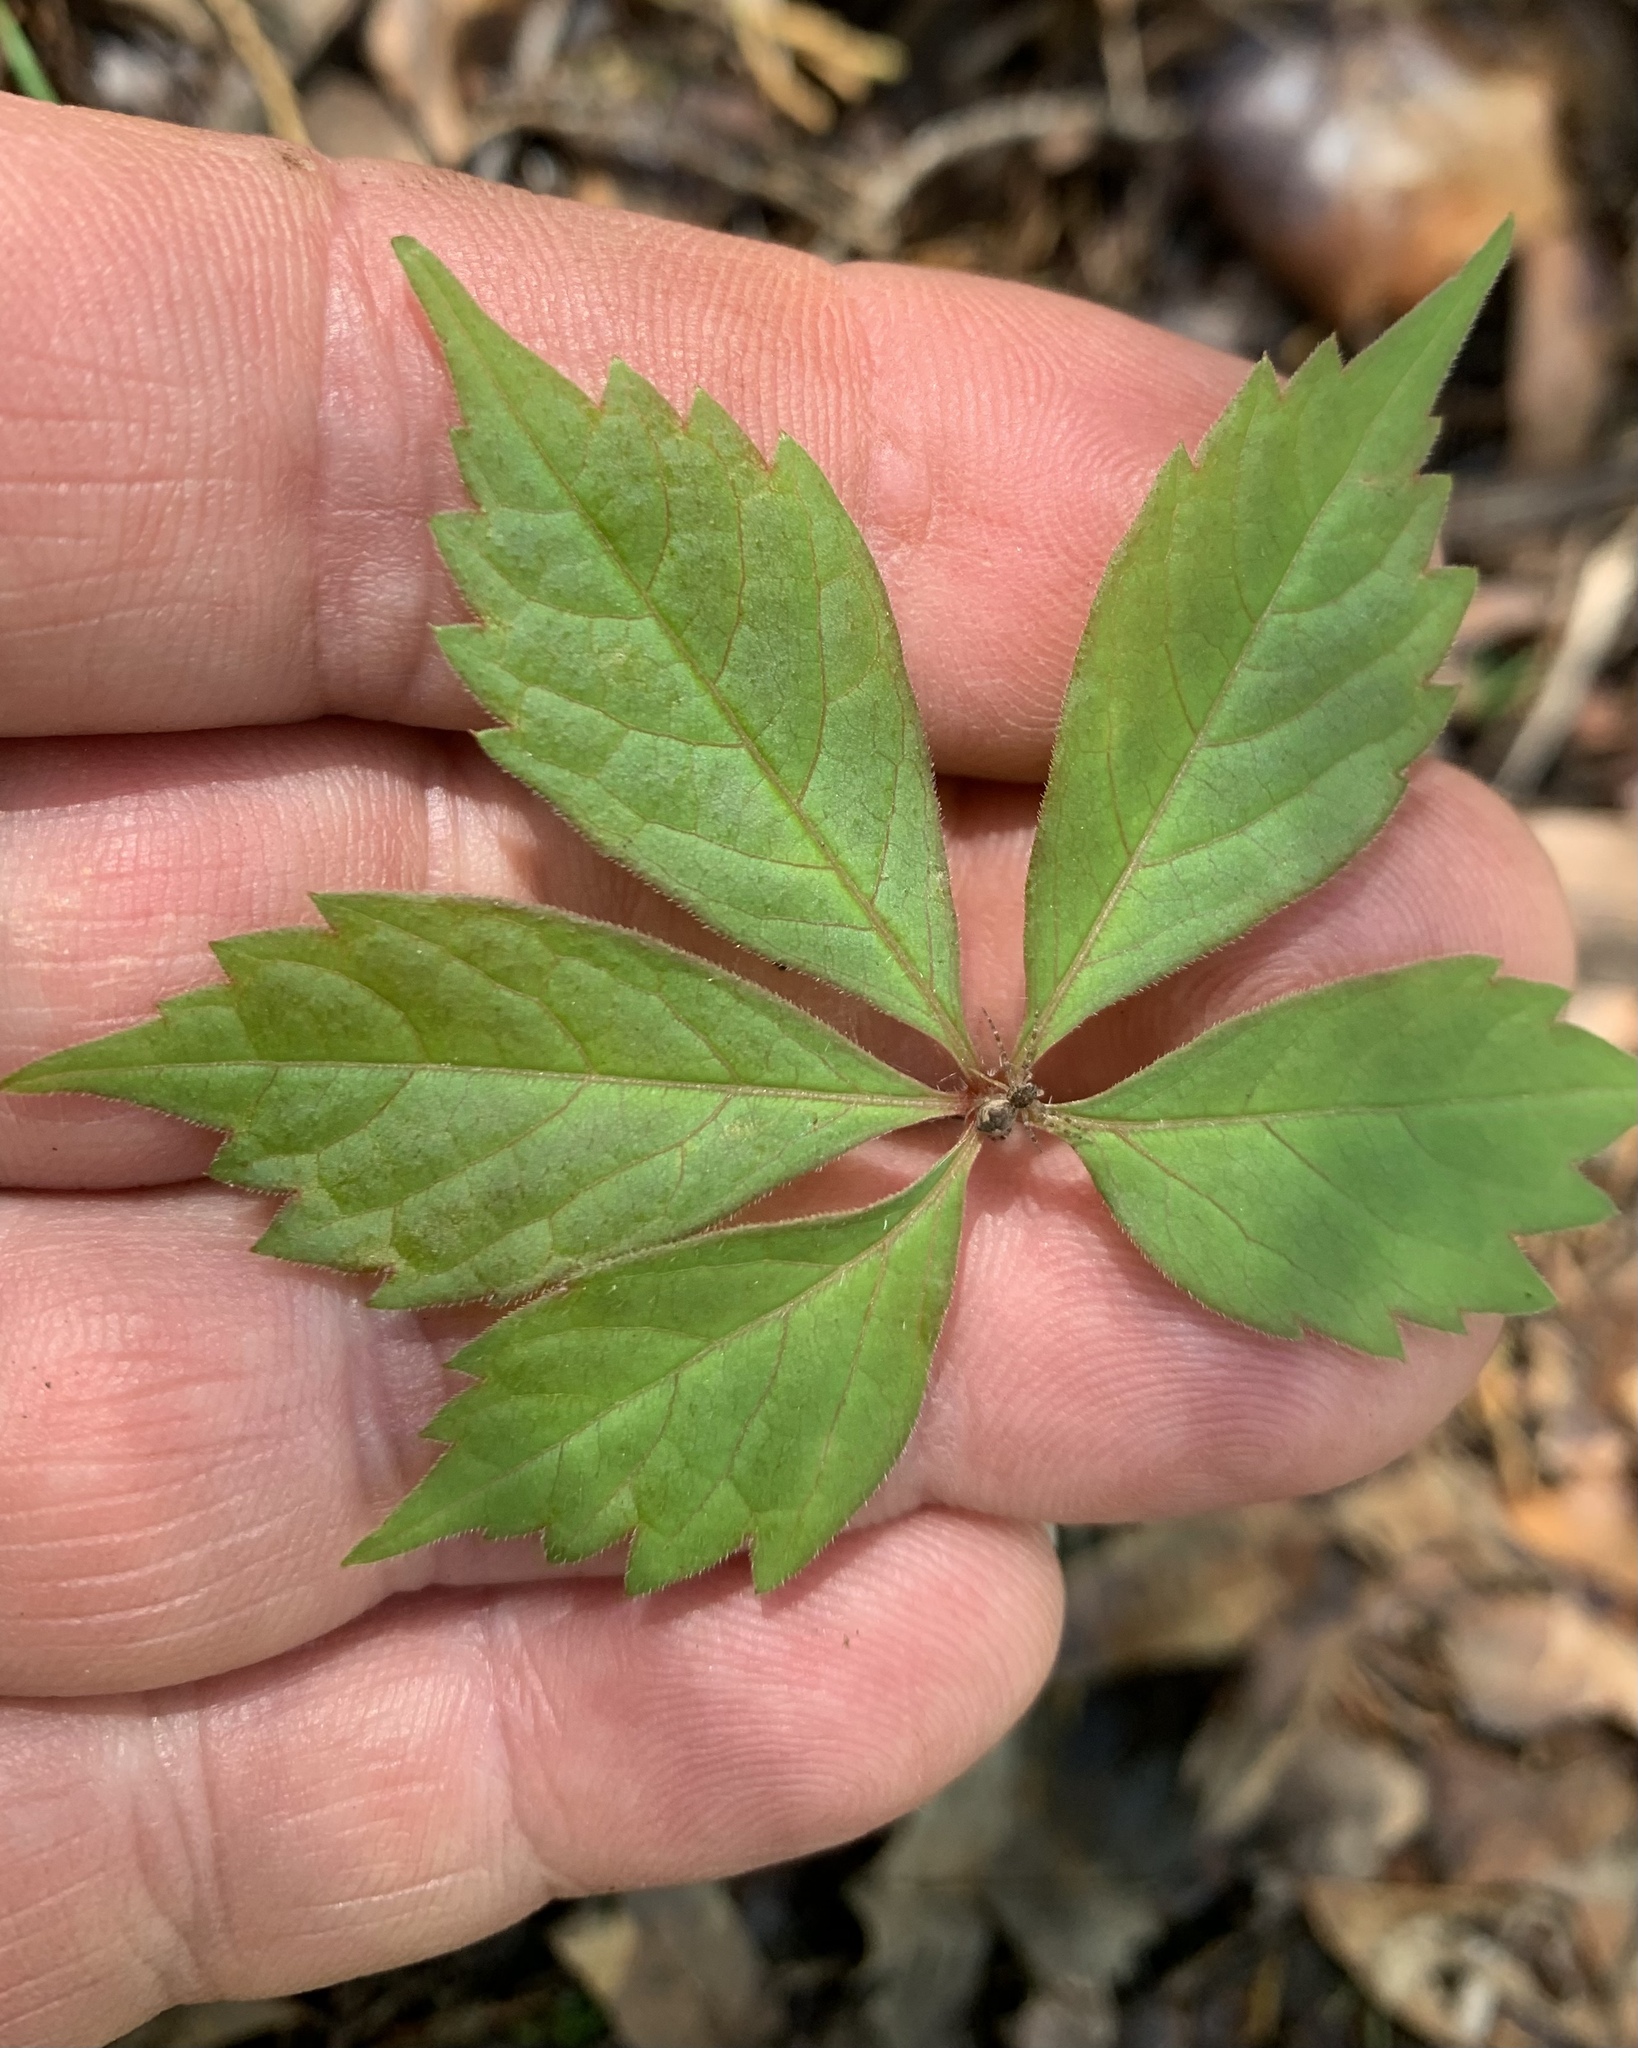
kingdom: Plantae
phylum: Tracheophyta
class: Magnoliopsida
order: Vitales
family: Vitaceae
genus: Parthenocissus
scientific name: Parthenocissus quinquefolia
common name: Virginia-creeper
